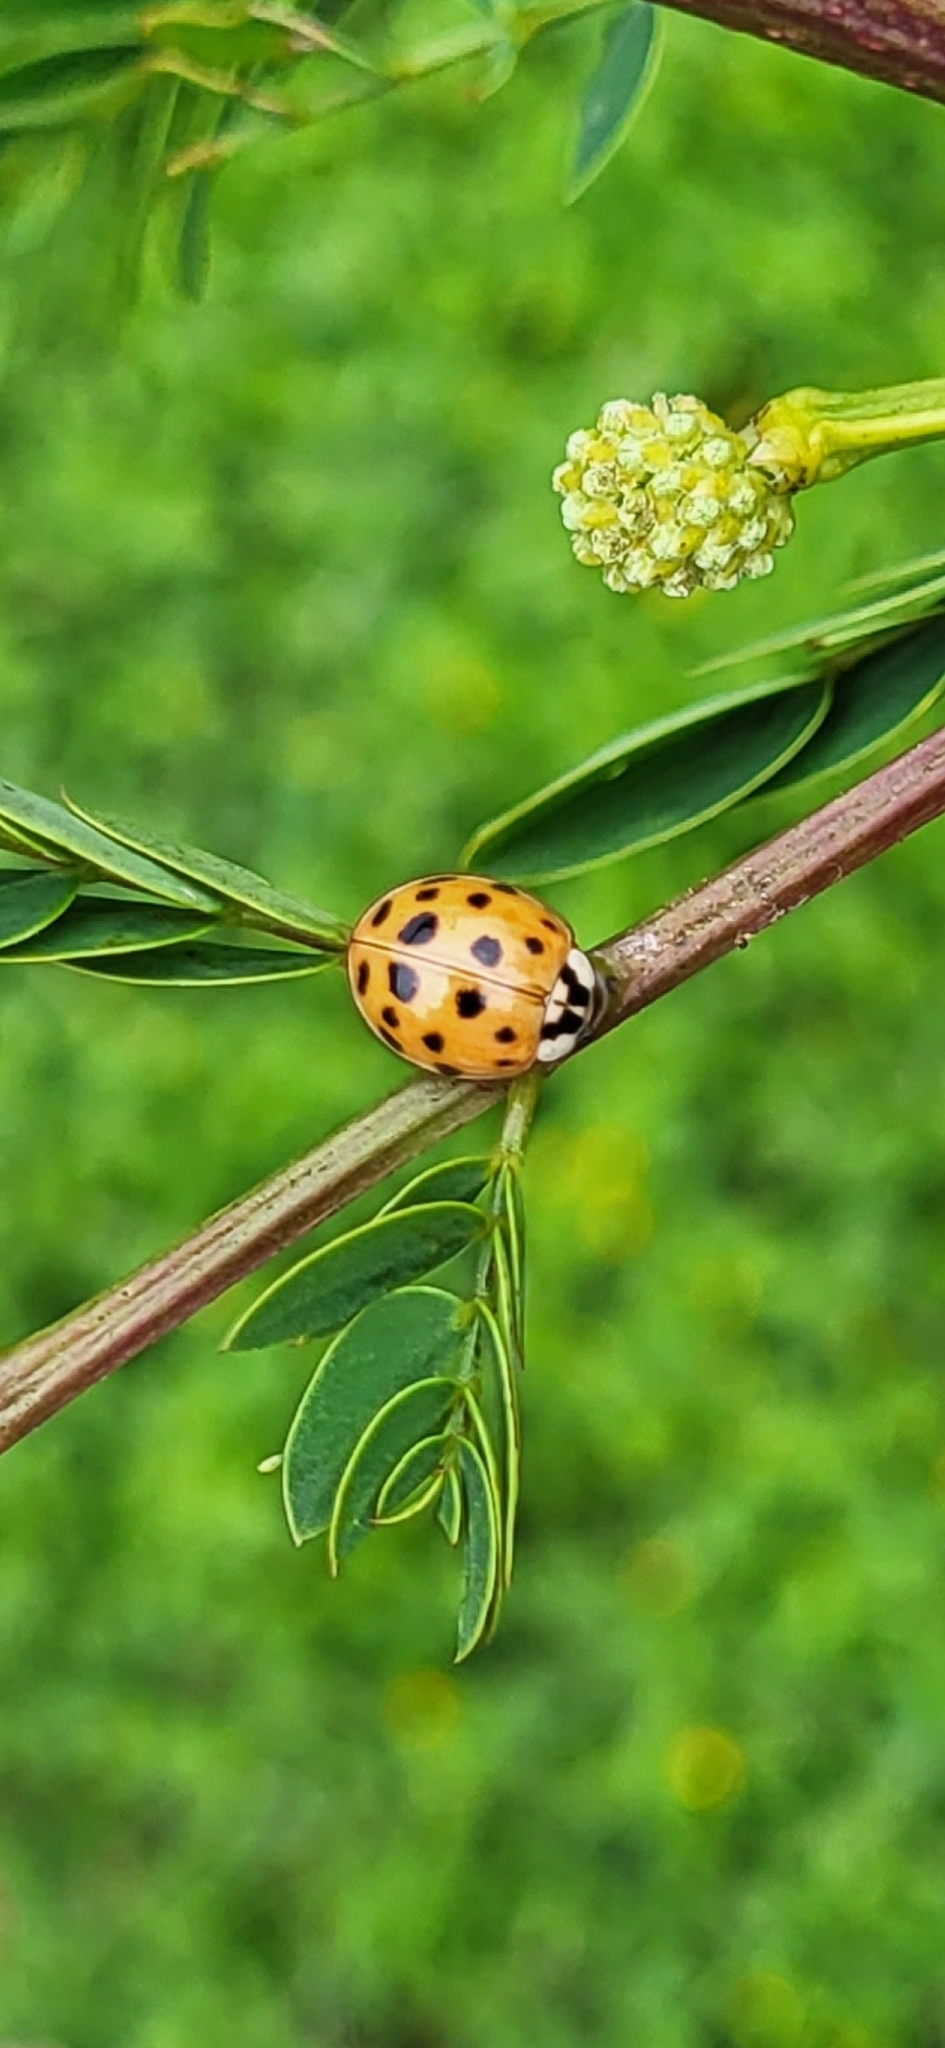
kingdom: Animalia
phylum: Arthropoda
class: Insecta
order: Coleoptera
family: Coccinellidae
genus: Harmonia
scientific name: Harmonia axyridis
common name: Harlequin ladybird
